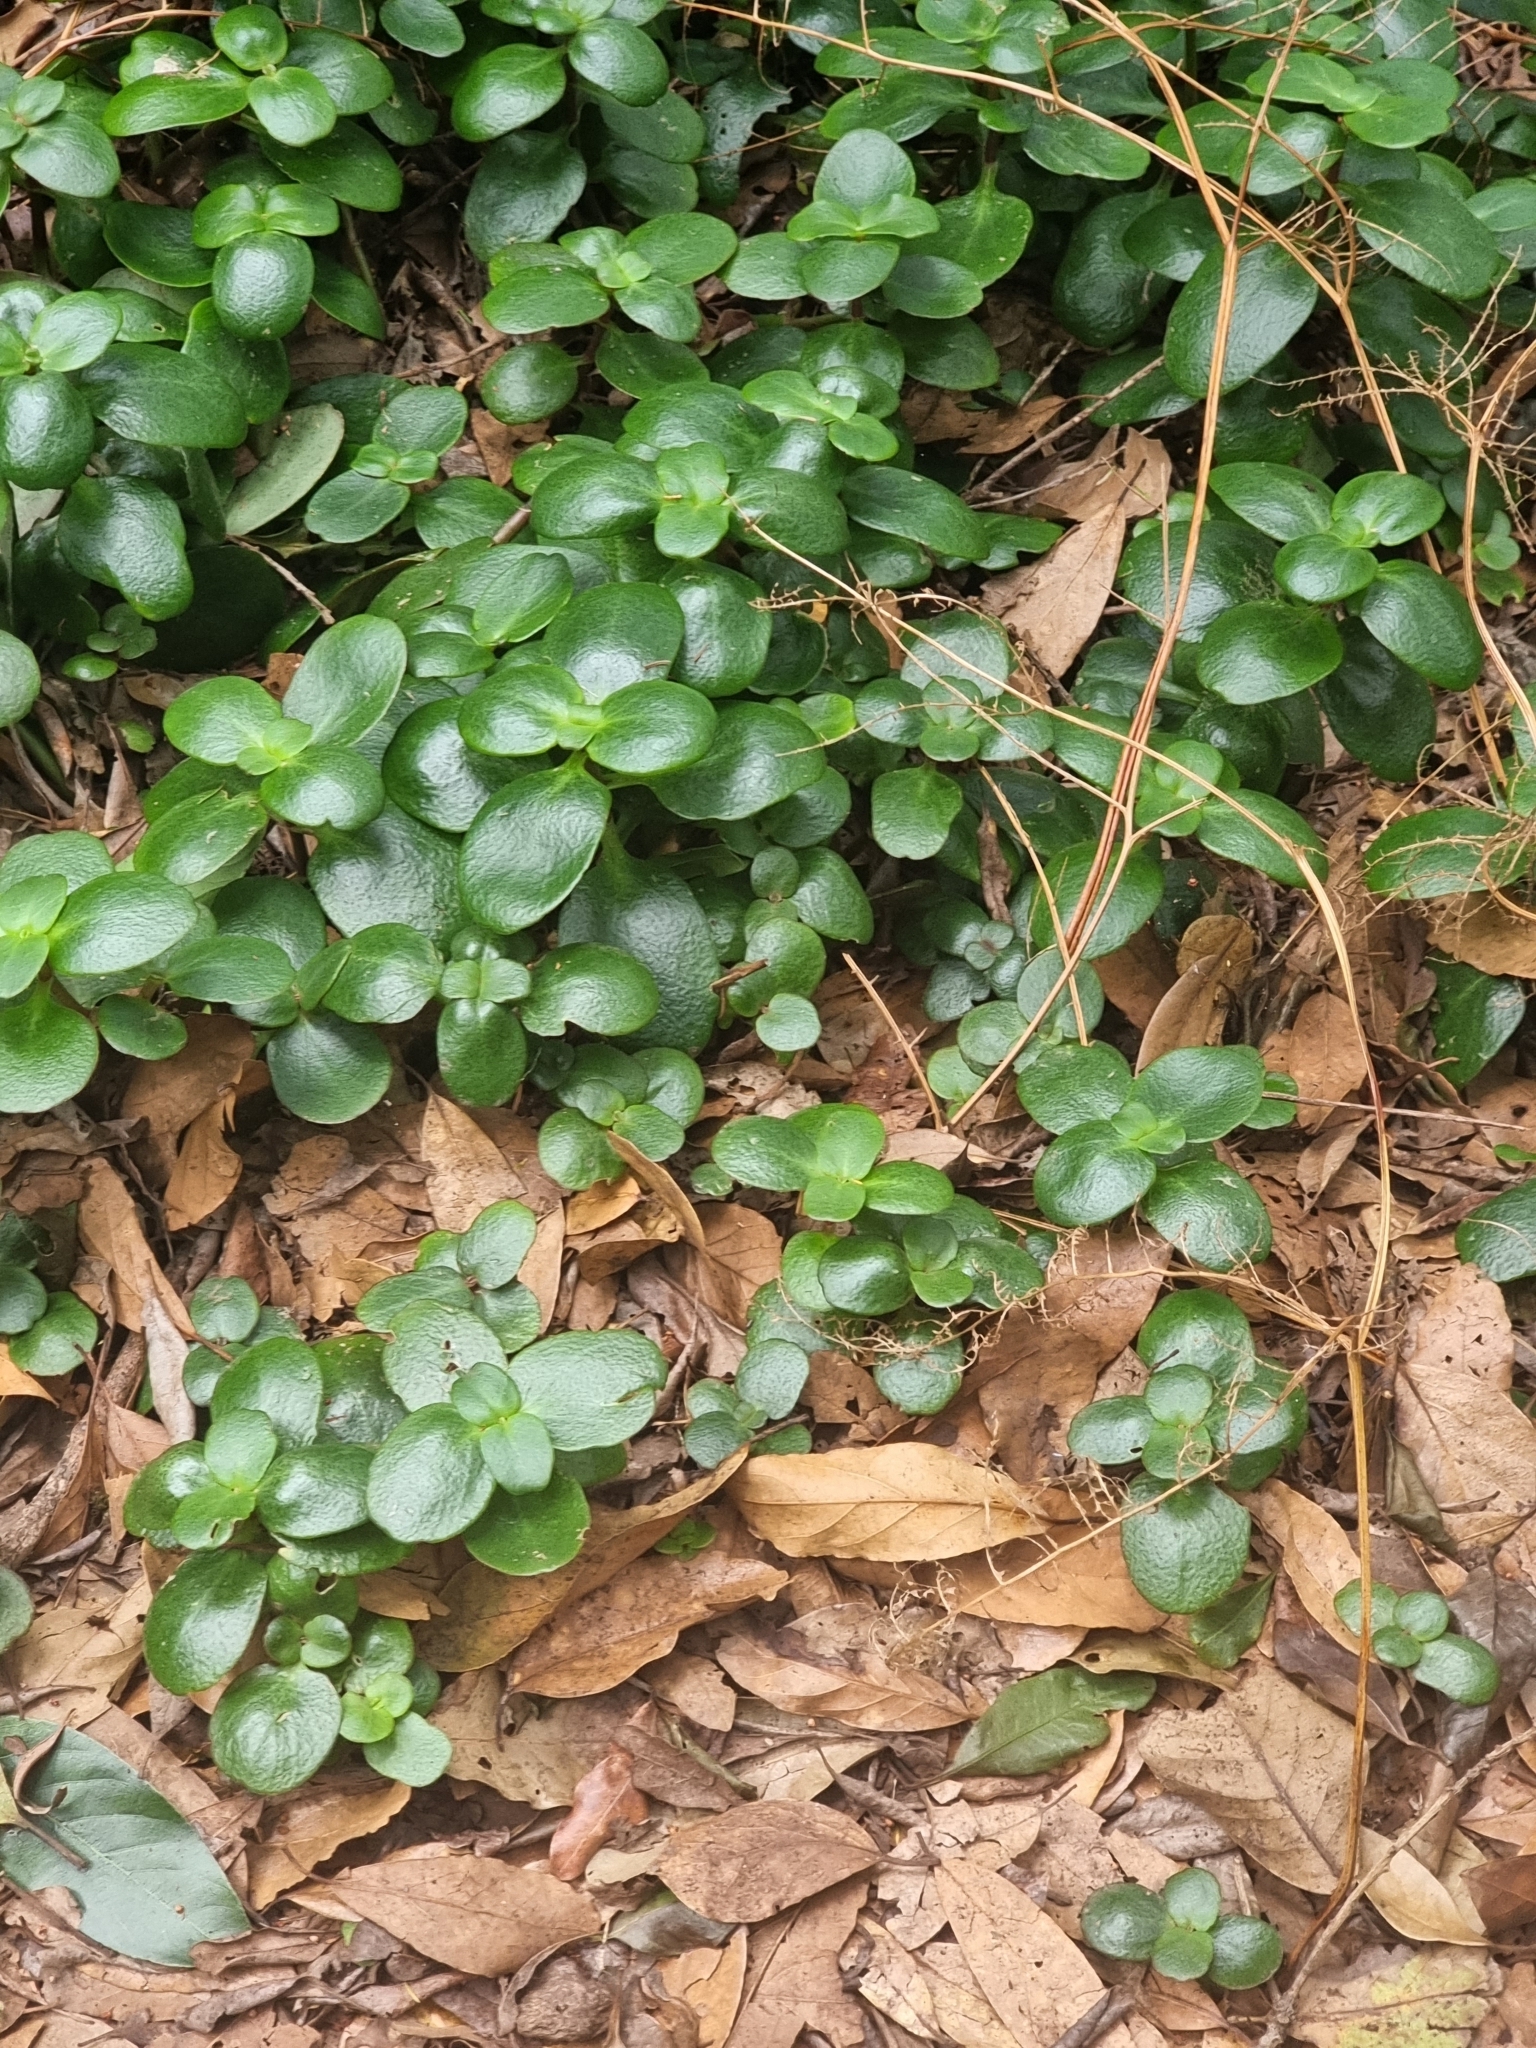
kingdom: Plantae
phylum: Tracheophyta
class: Magnoliopsida
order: Saxifragales
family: Crassulaceae
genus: Crassula
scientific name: Crassula multicava
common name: Cape province pygmyweed
